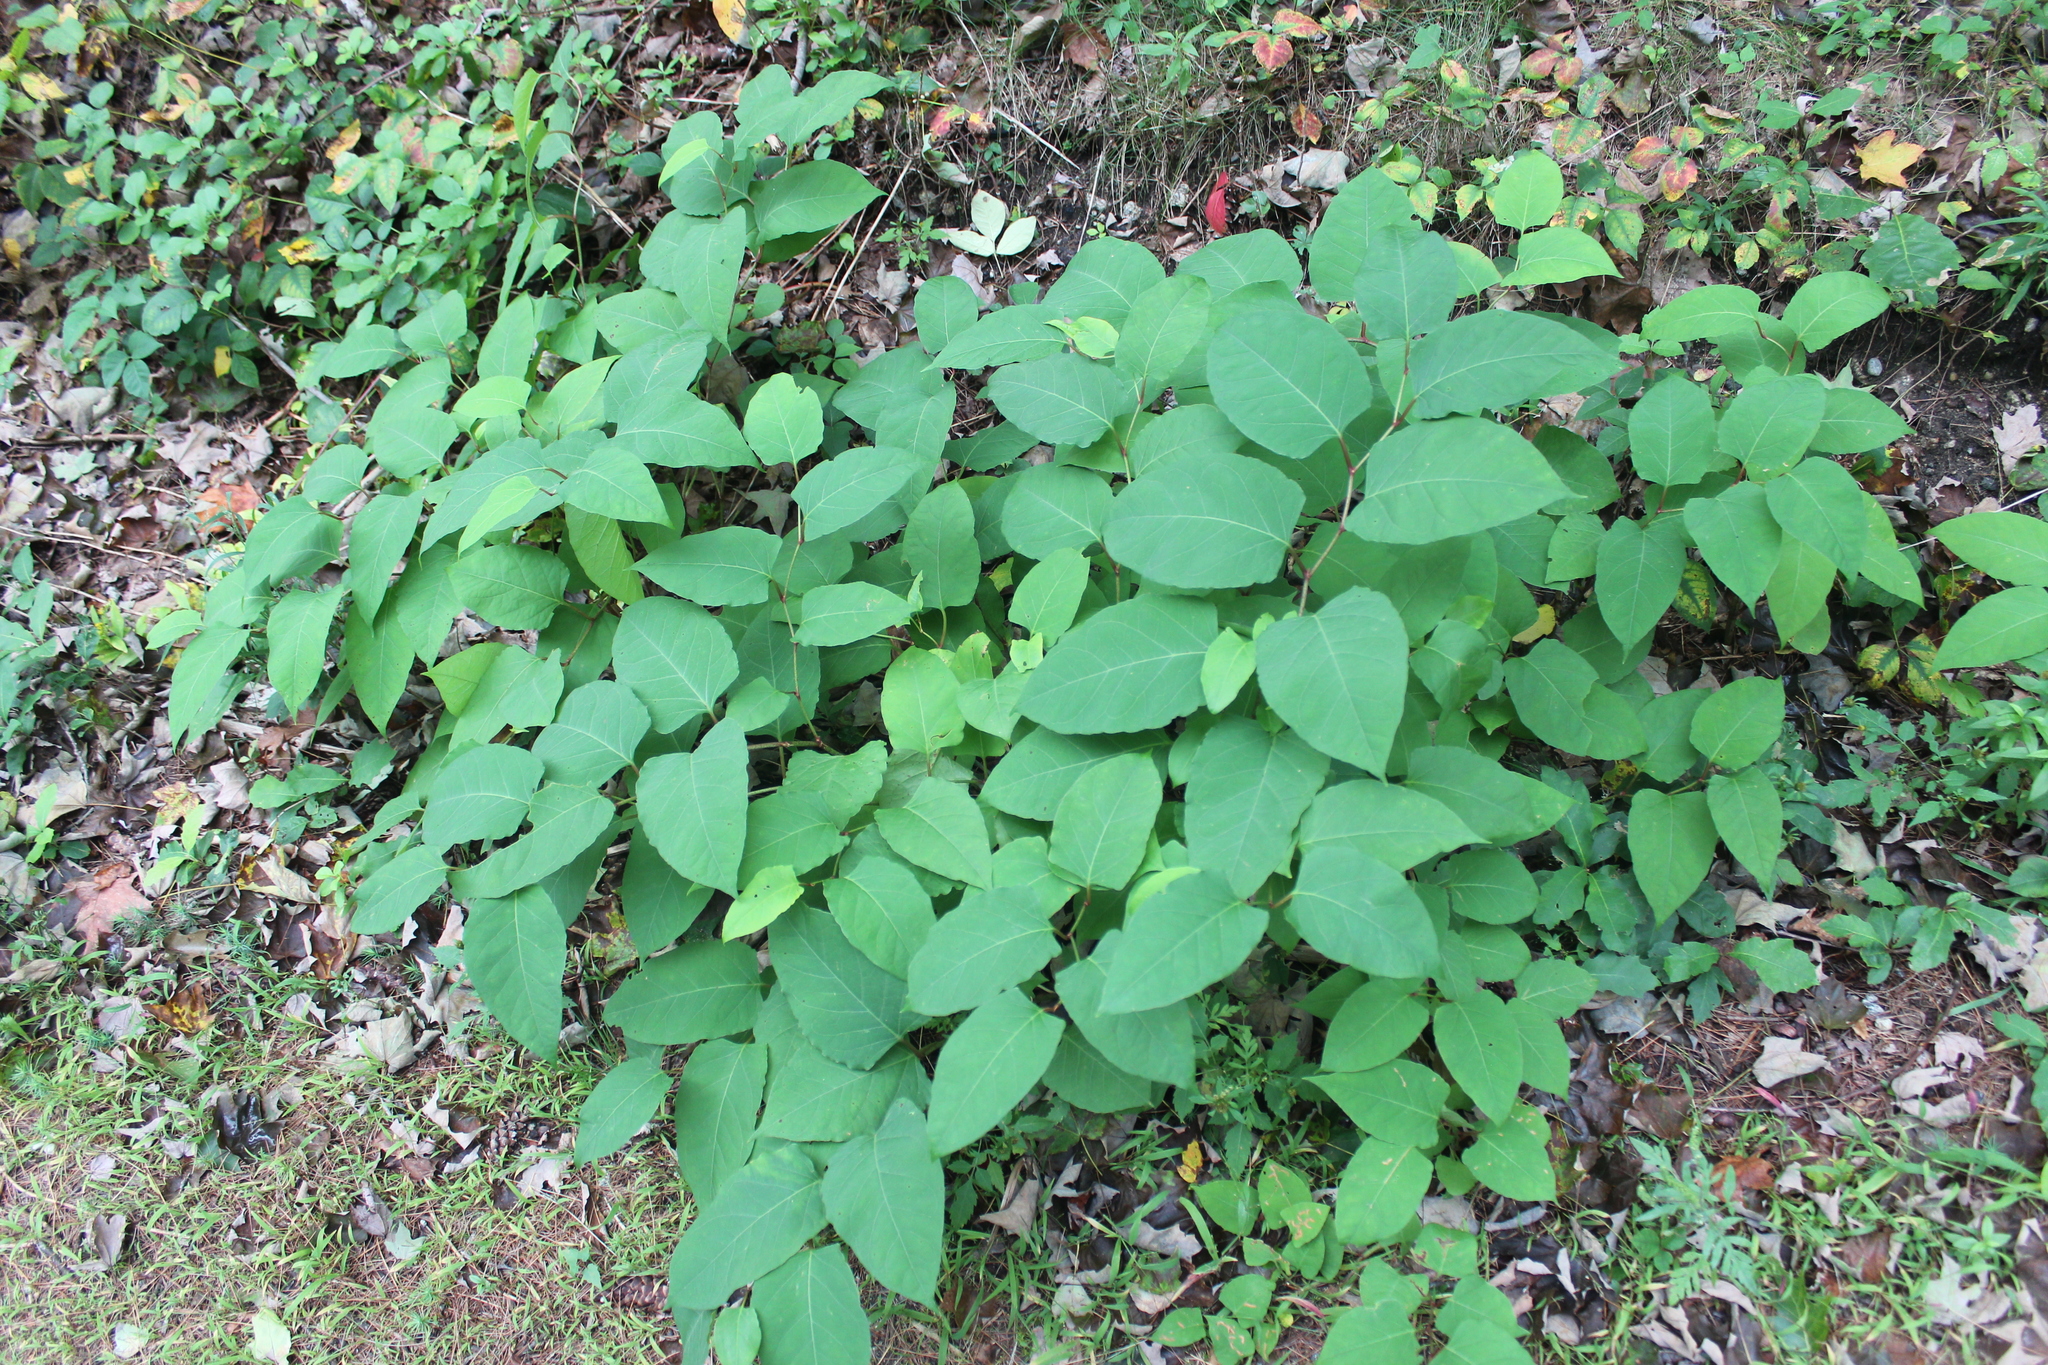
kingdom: Plantae
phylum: Tracheophyta
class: Magnoliopsida
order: Caryophyllales
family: Polygonaceae
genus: Reynoutria
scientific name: Reynoutria japonica
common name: Japanese knotweed
